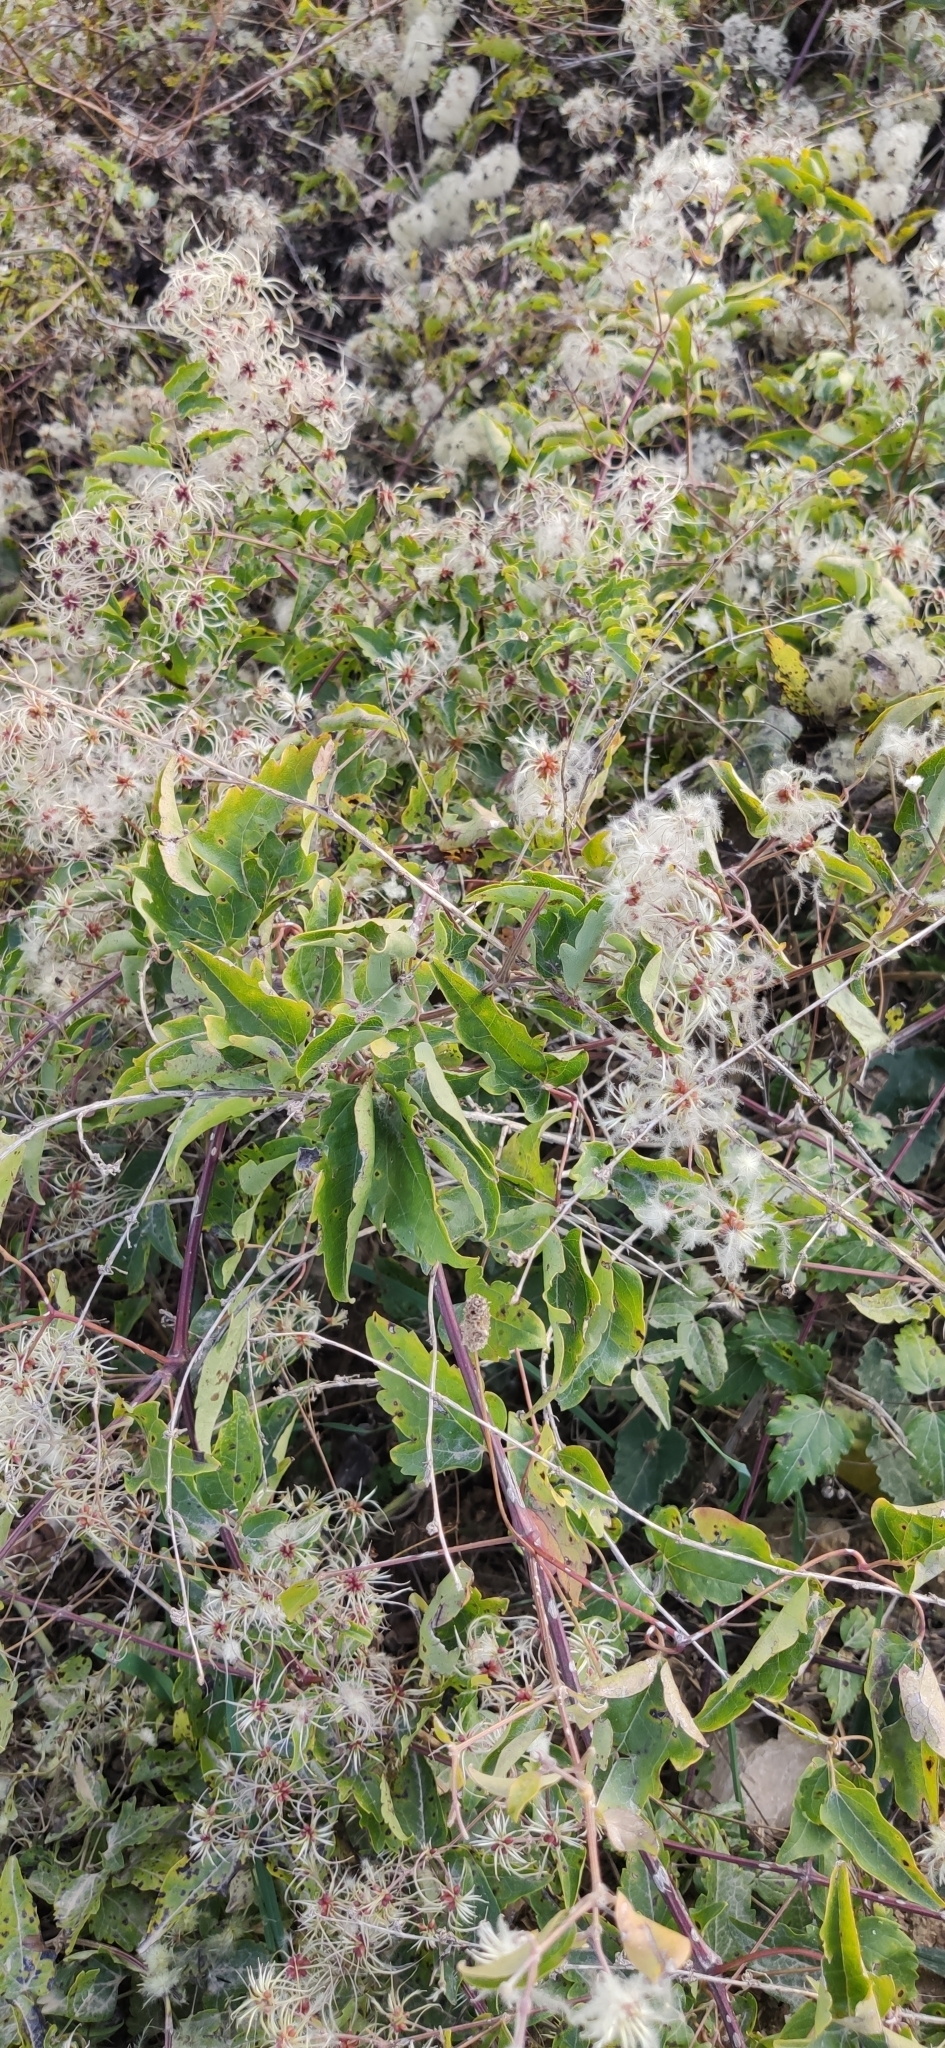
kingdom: Plantae
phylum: Tracheophyta
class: Magnoliopsida
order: Ranunculales
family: Ranunculaceae
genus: Clematis
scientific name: Clematis vitalba
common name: Evergreen clematis
